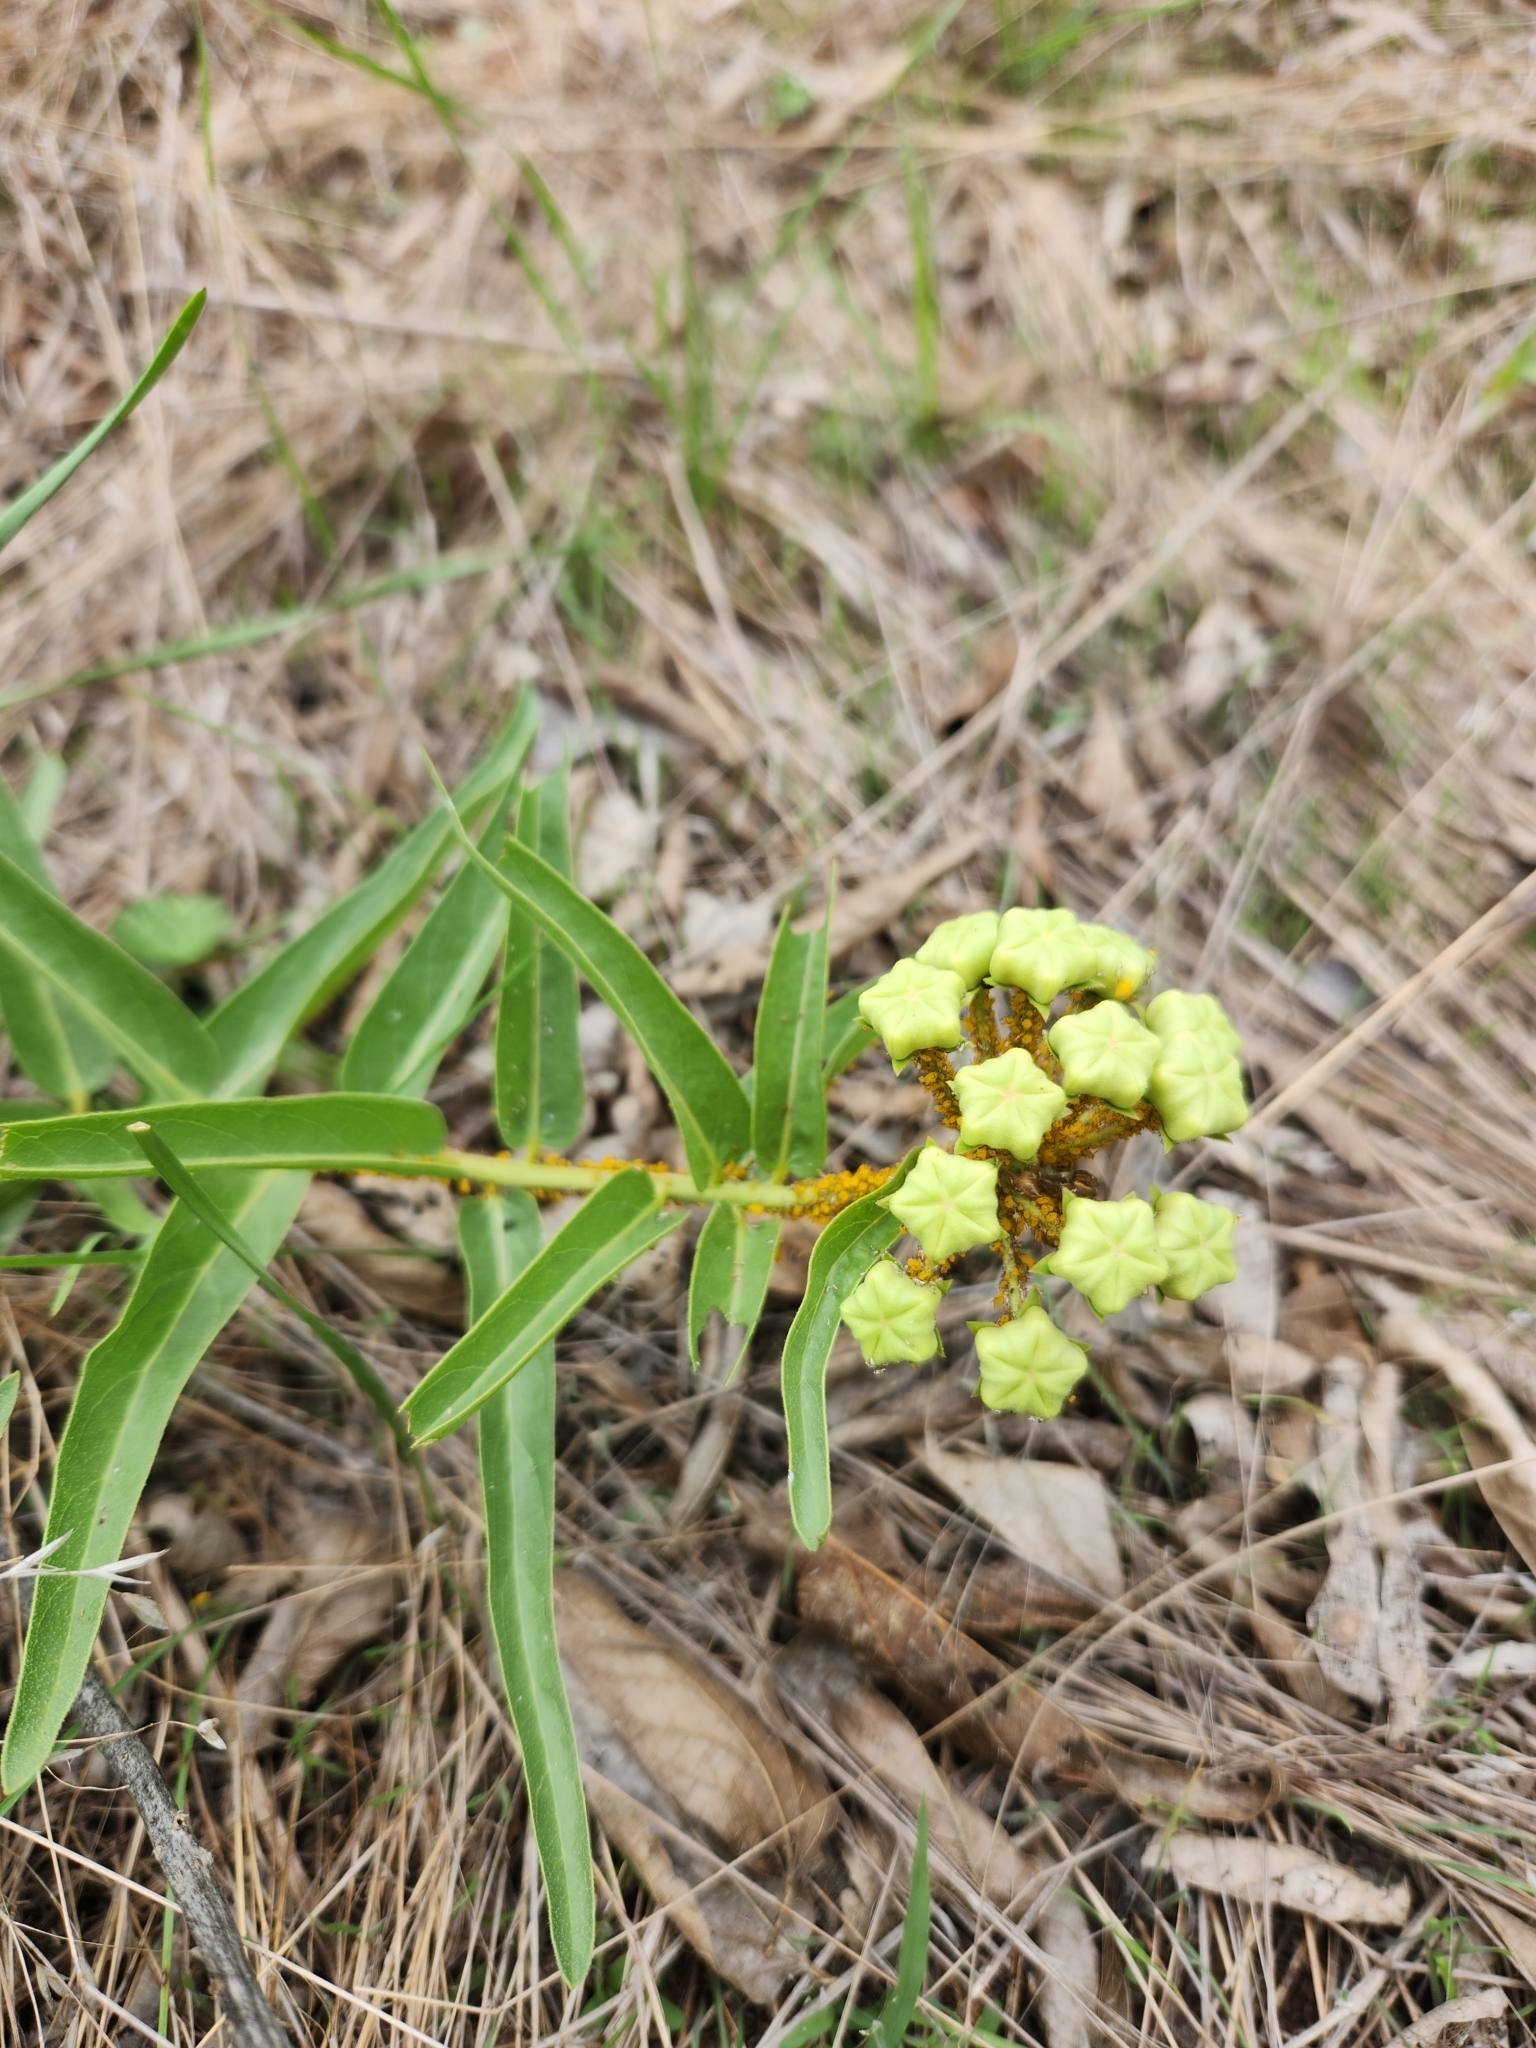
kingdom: Plantae
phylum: Tracheophyta
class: Magnoliopsida
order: Gentianales
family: Apocynaceae
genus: Asclepias
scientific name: Asclepias asperula
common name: Antelope horns
